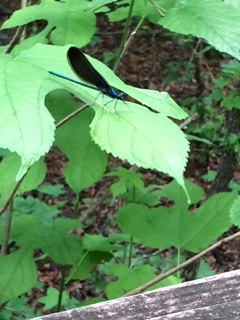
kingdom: Animalia
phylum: Arthropoda
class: Insecta
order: Odonata
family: Calopterygidae
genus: Calopteryx
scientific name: Calopteryx maculata
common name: Ebony jewelwing
